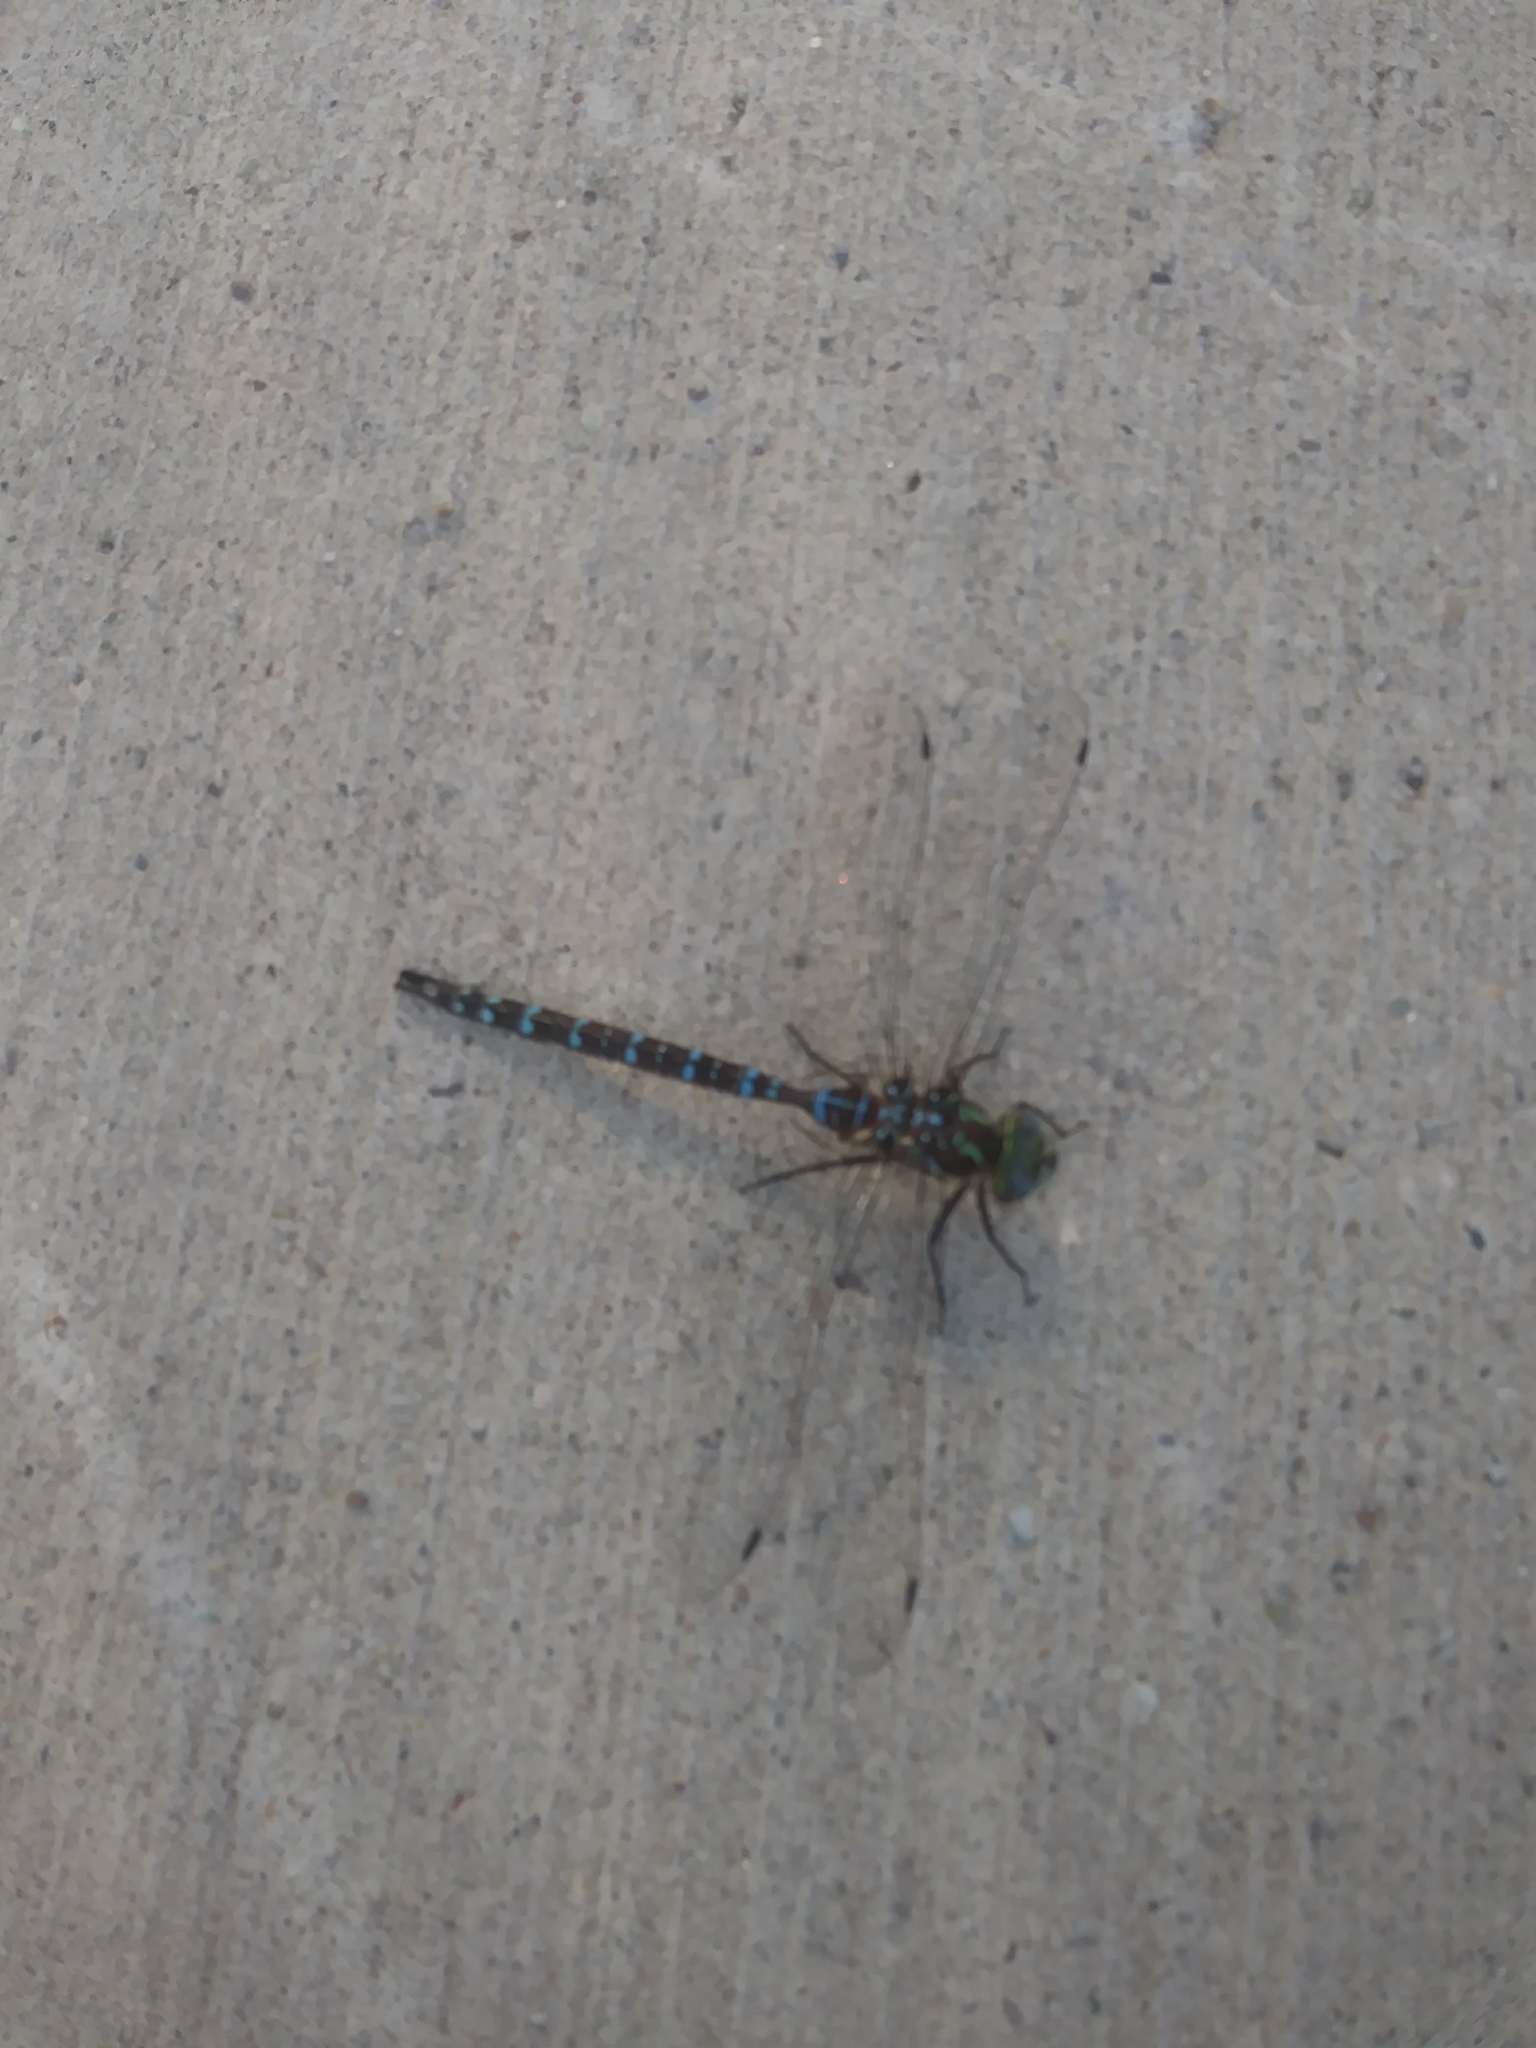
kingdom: Animalia
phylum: Arthropoda
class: Insecta
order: Odonata
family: Aeshnidae
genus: Aeshna
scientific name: Aeshna umbrosa
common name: Shadow darner
